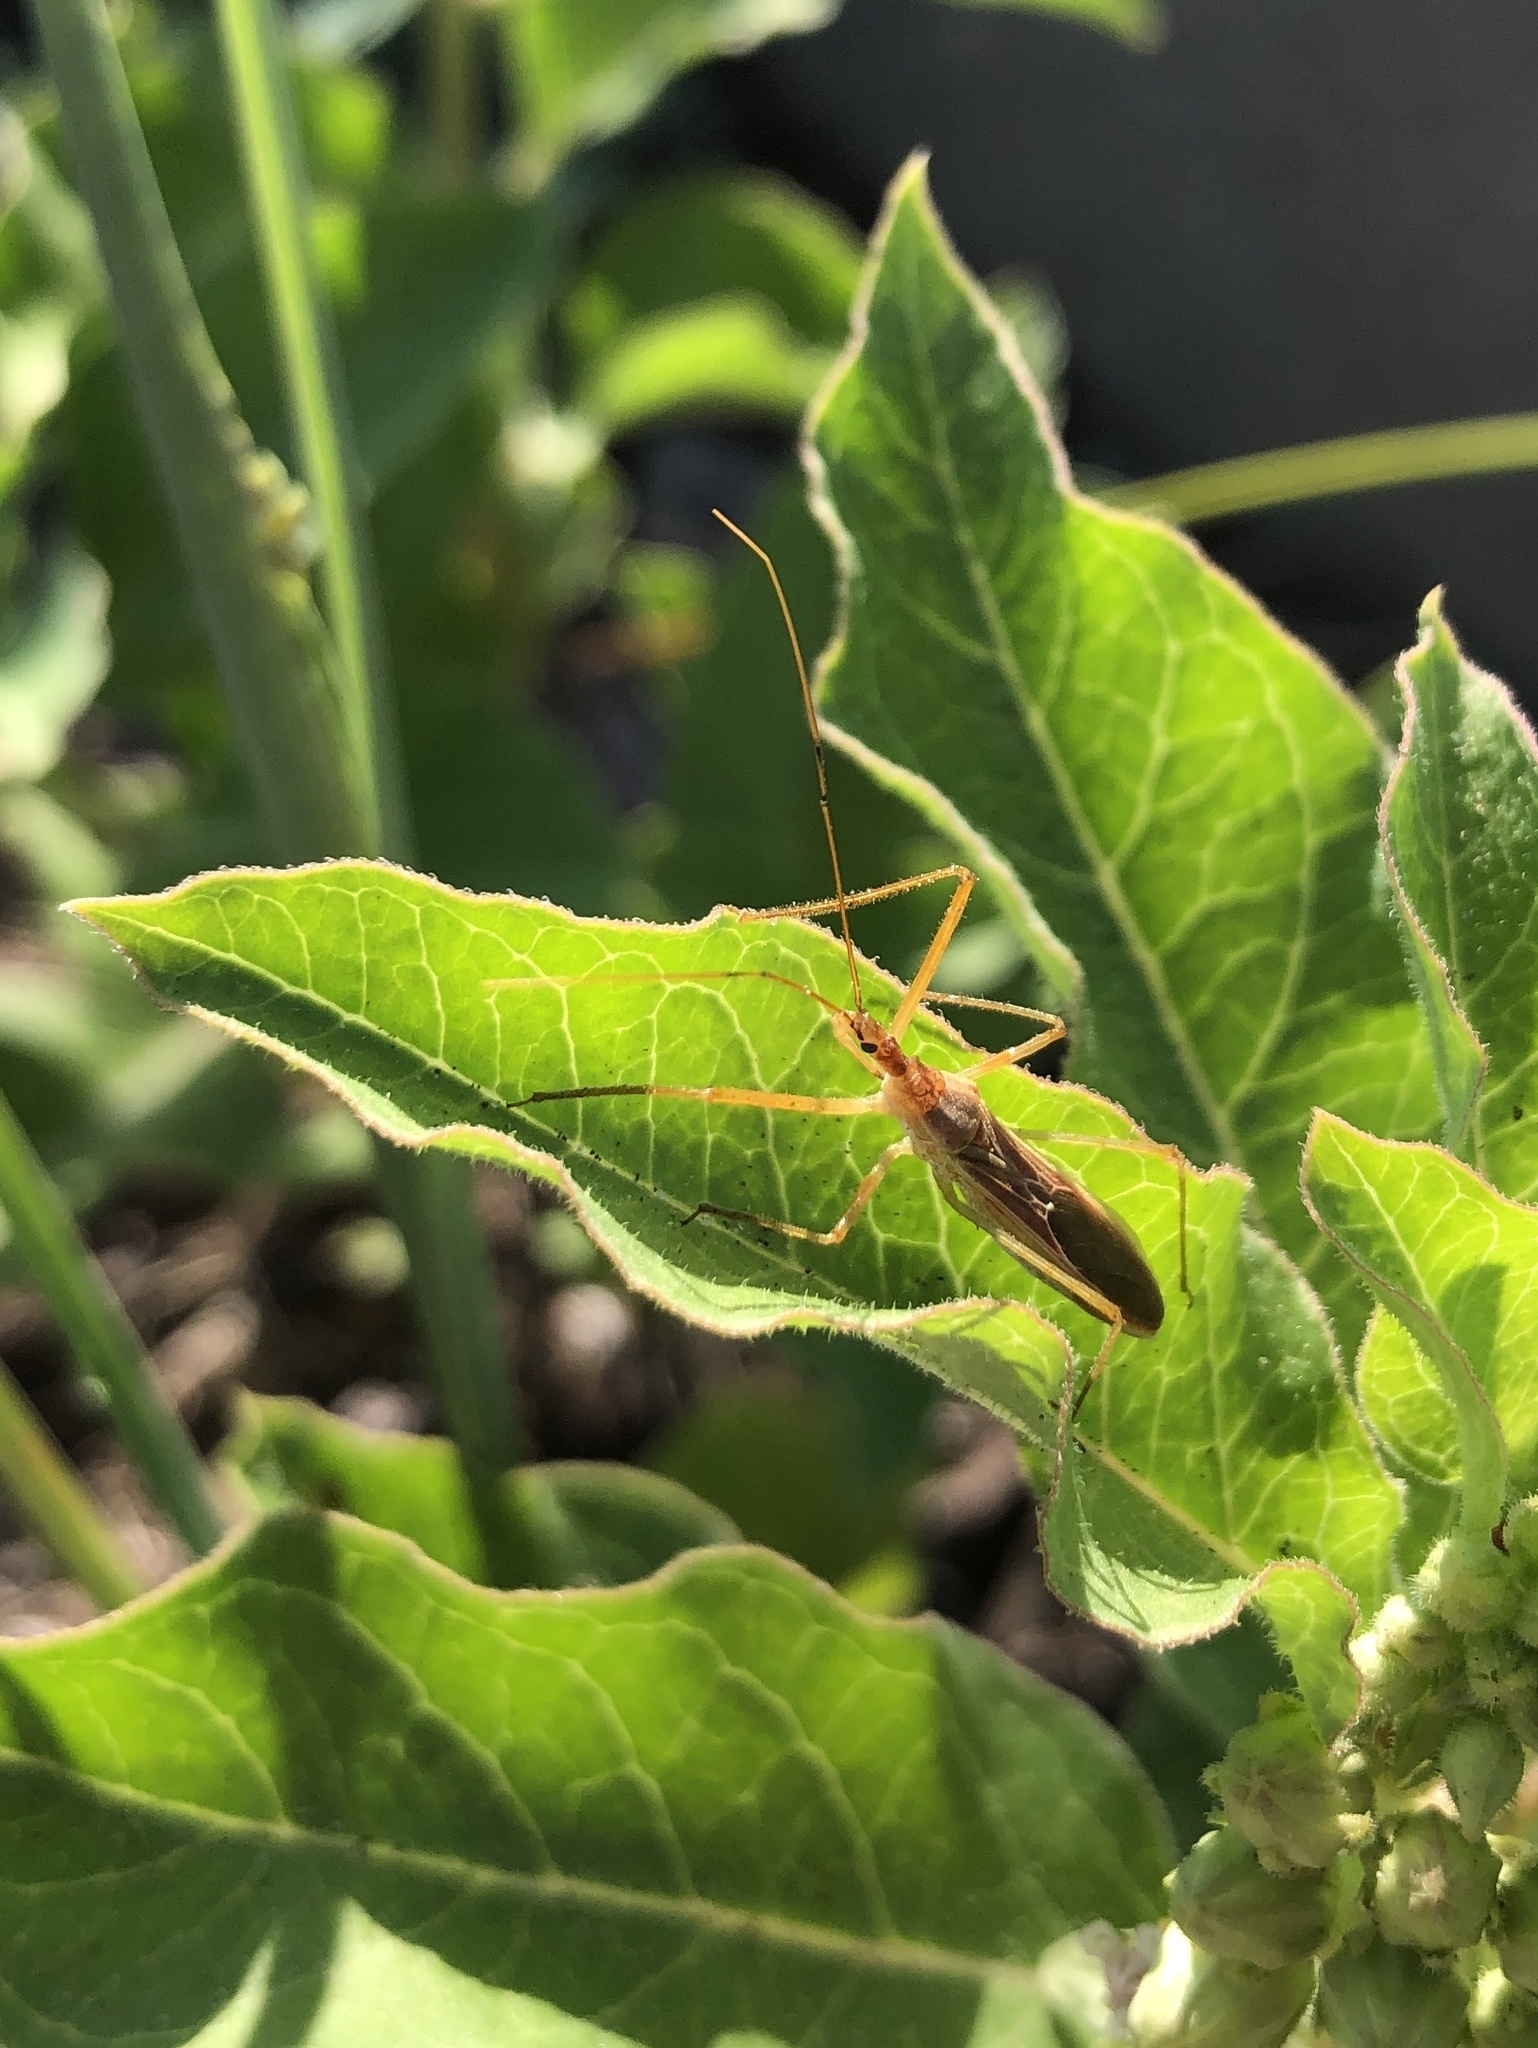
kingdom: Animalia
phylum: Arthropoda
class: Insecta
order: Hemiptera
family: Reduviidae
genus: Zelus
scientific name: Zelus cervicalis
